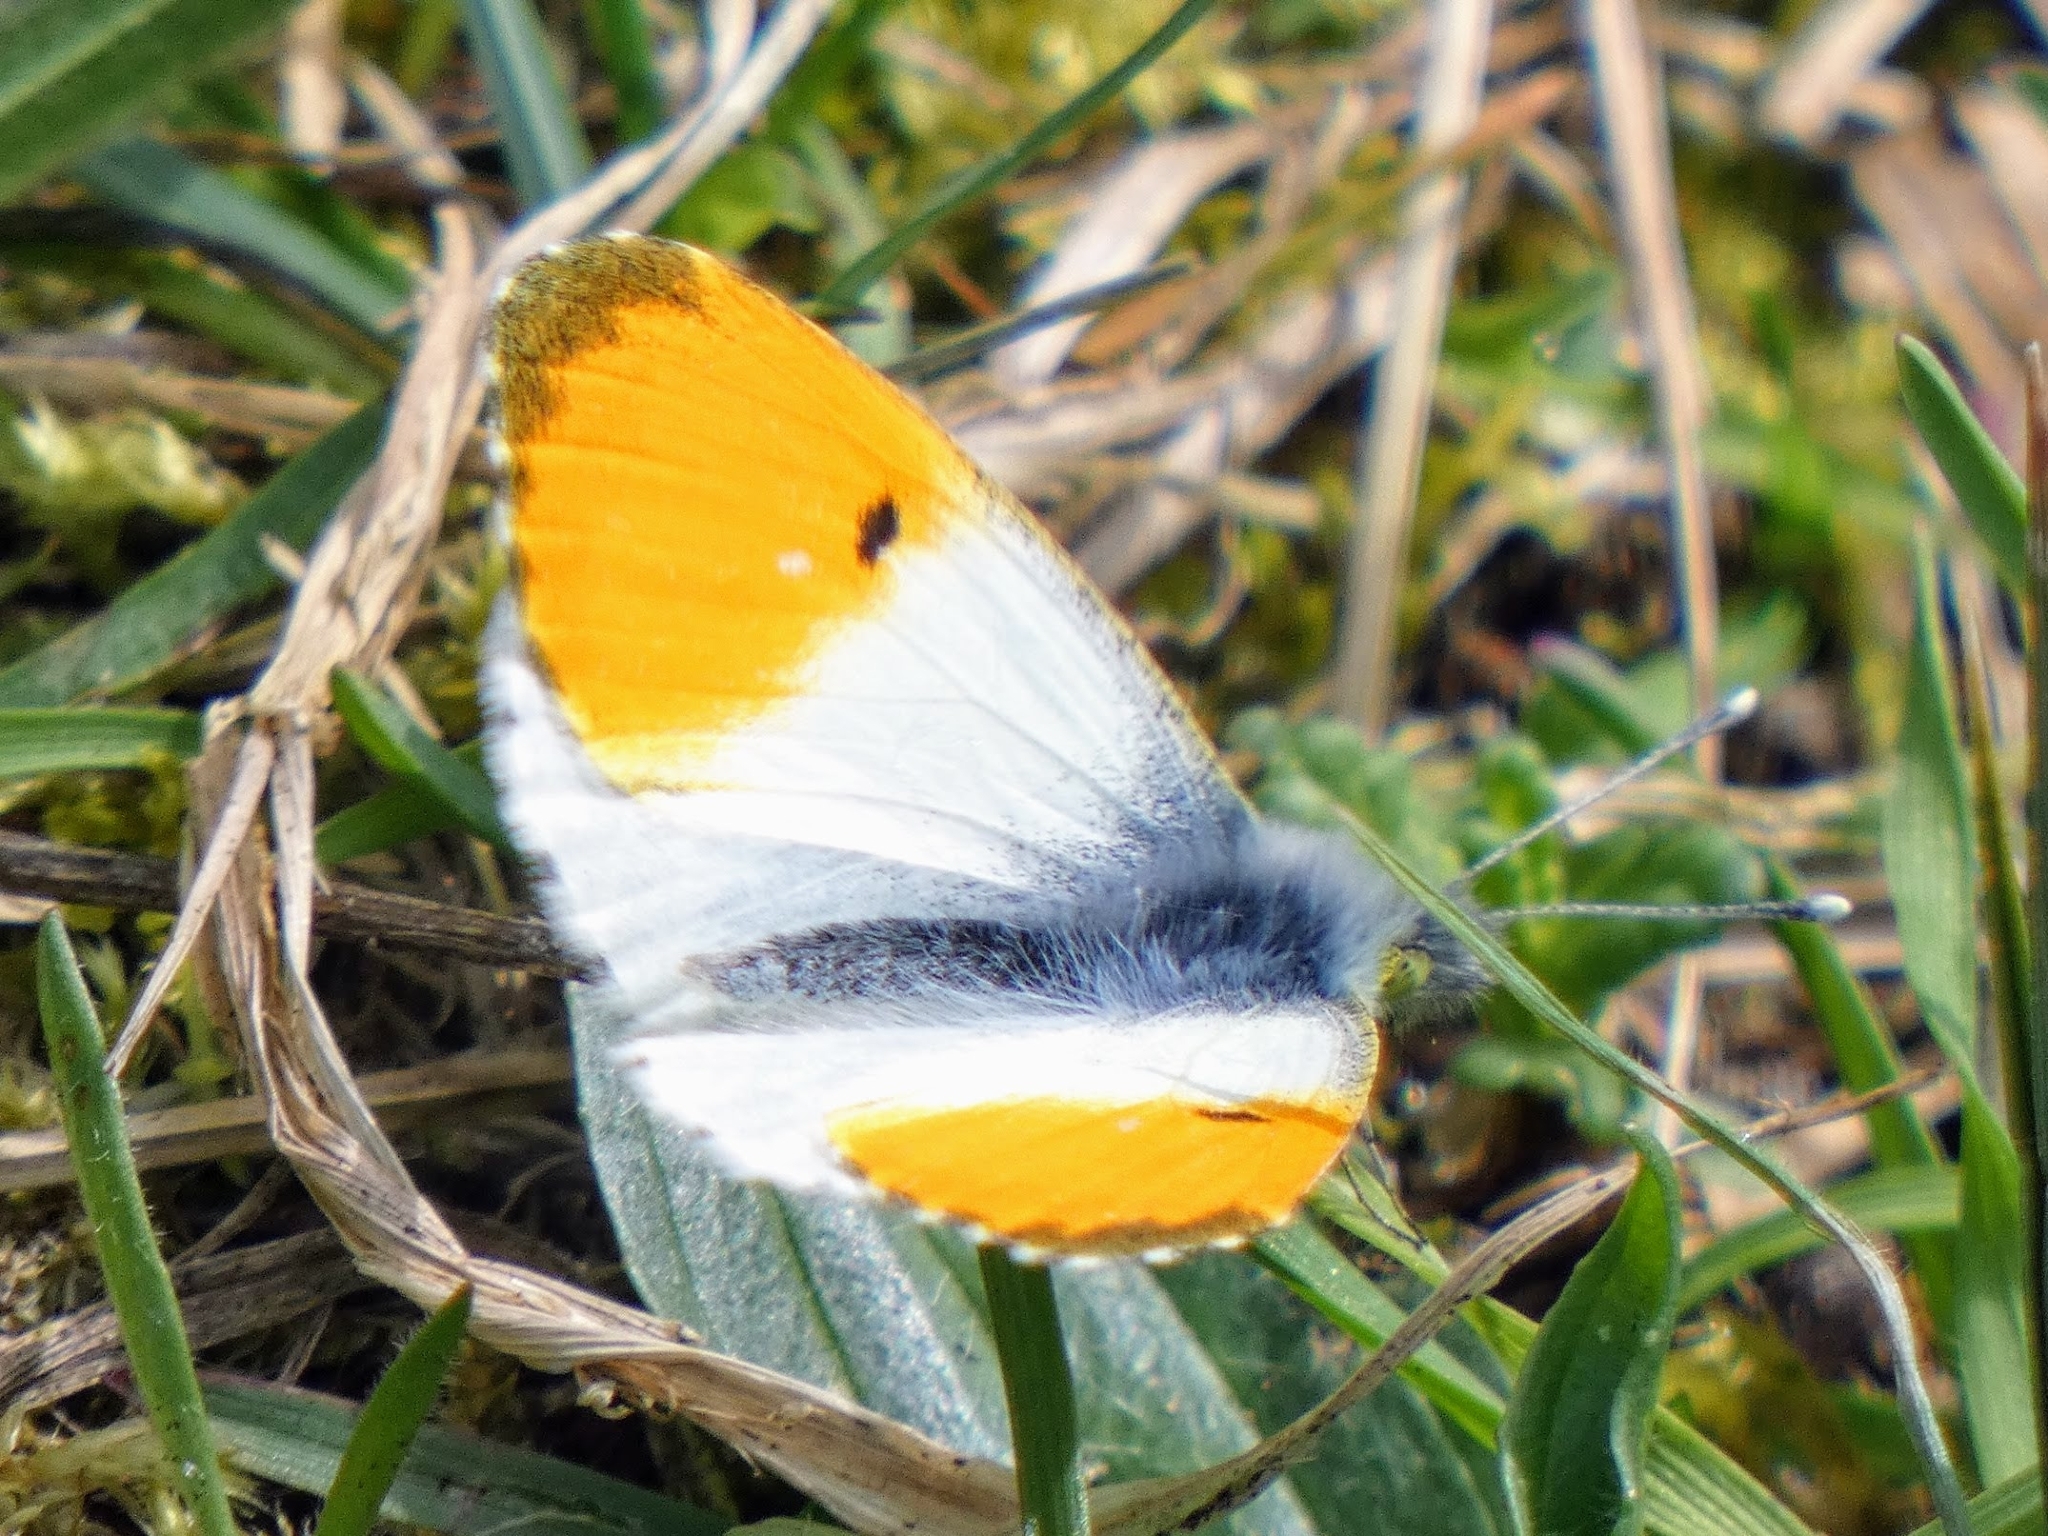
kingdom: Animalia
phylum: Arthropoda
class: Insecta
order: Lepidoptera
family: Pieridae
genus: Anthocharis
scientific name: Anthocharis cardamines
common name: Orange-tip
